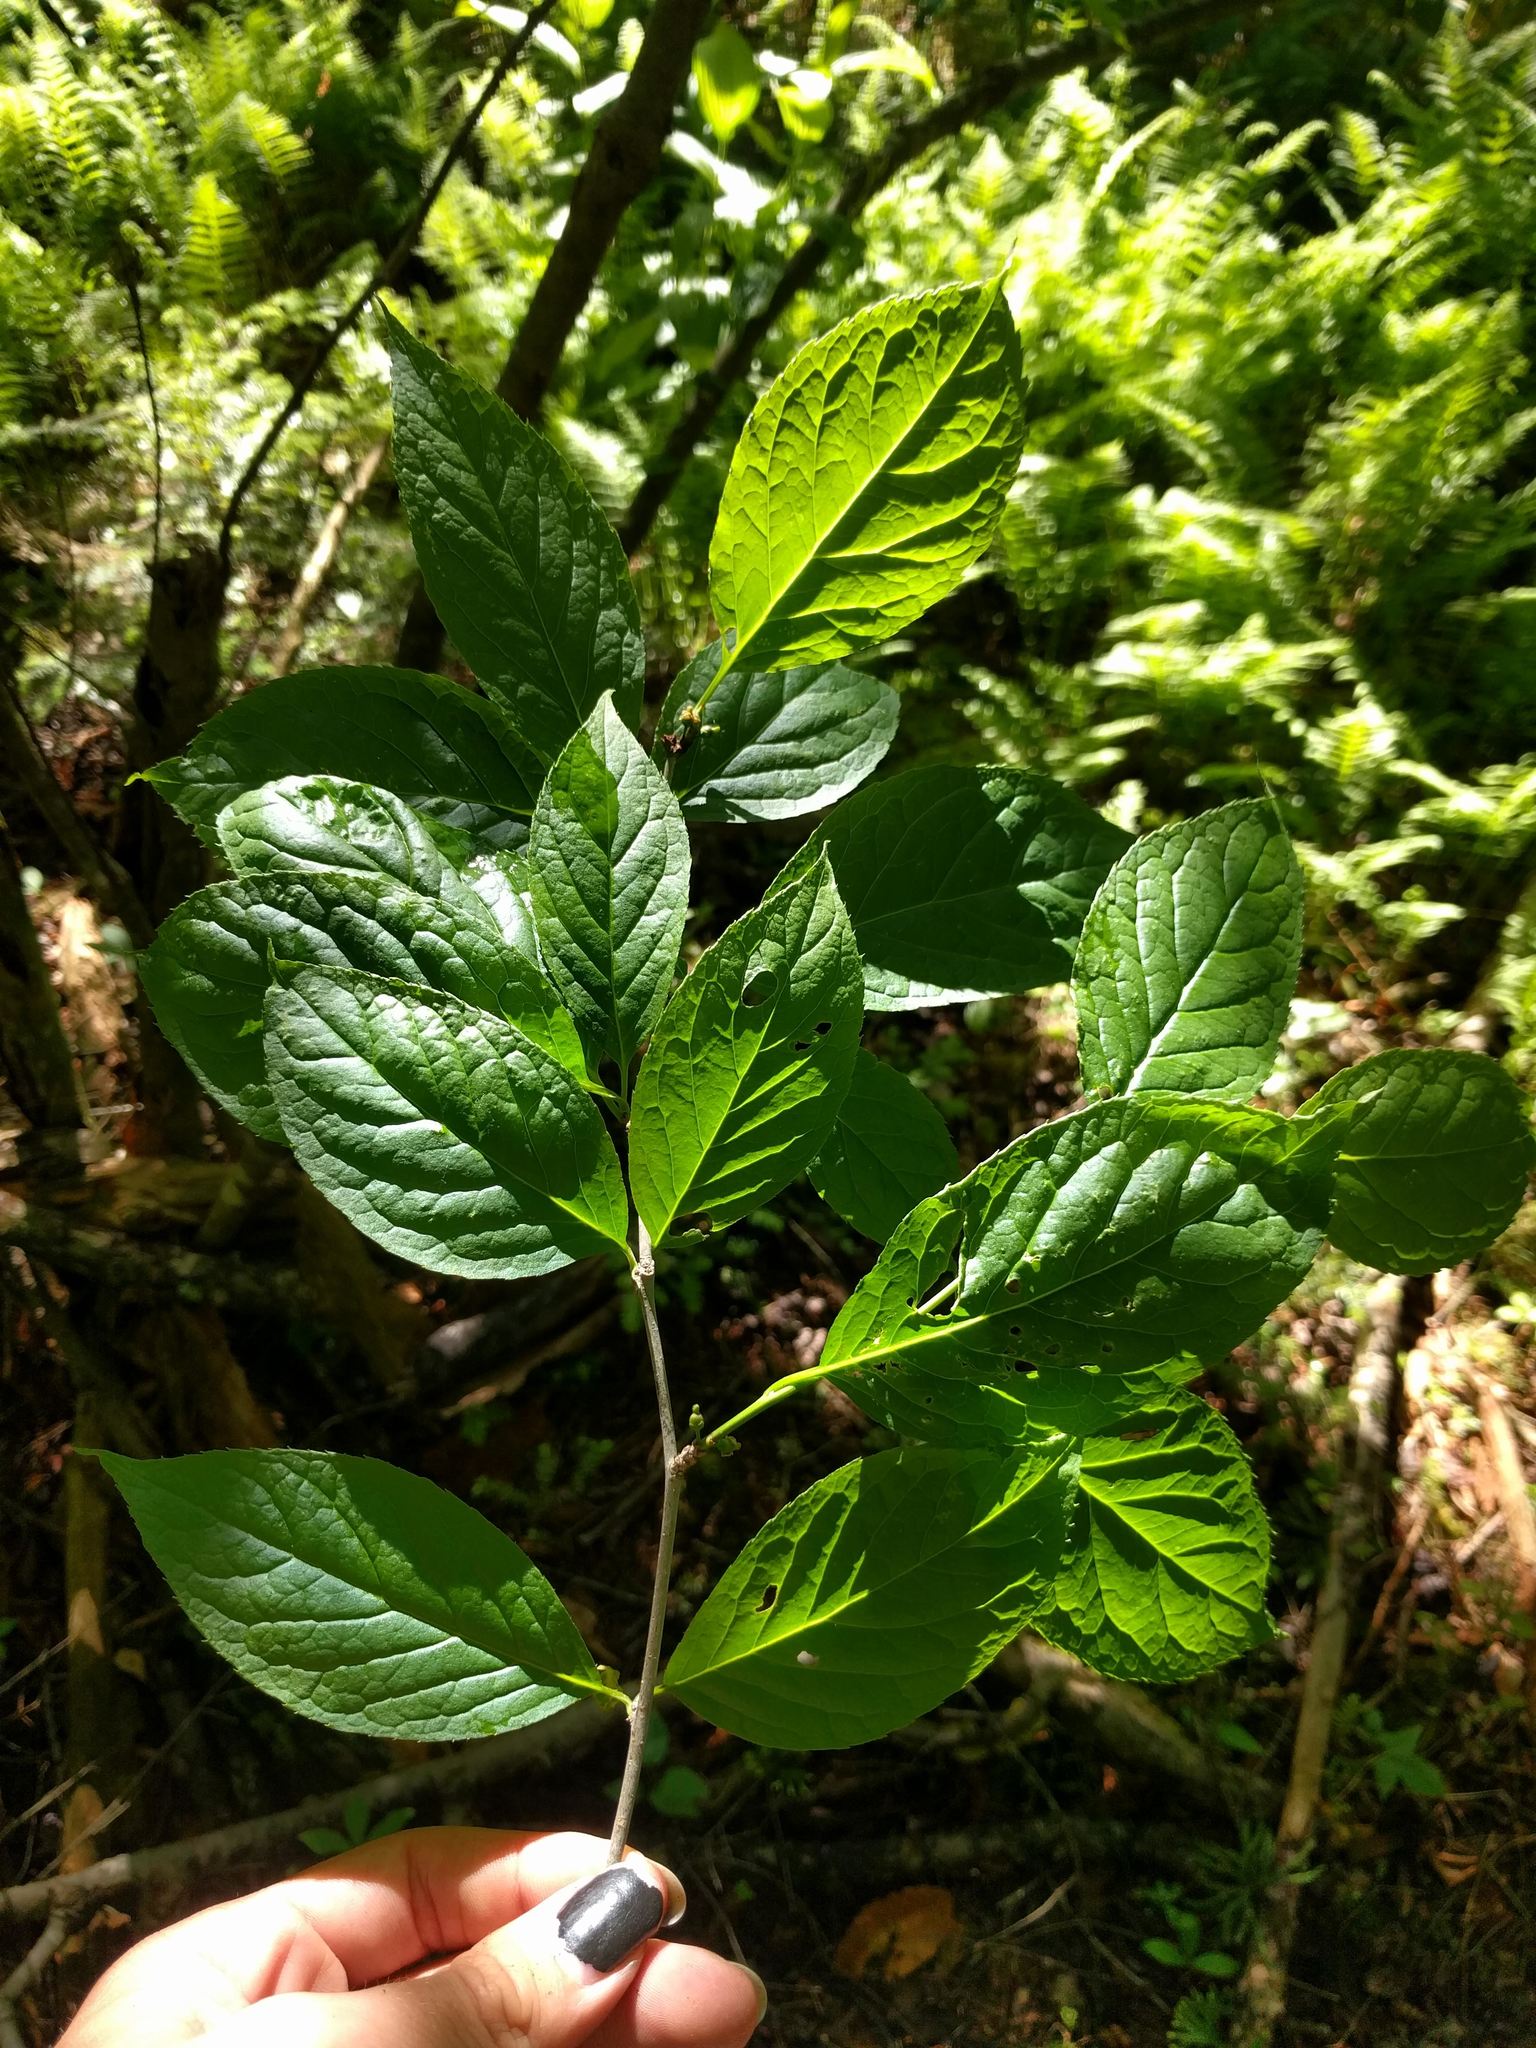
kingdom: Plantae
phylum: Tracheophyta
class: Magnoliopsida
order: Aquifoliales
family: Aquifoliaceae
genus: Ilex
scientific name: Ilex montana
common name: Mountain winterberry
